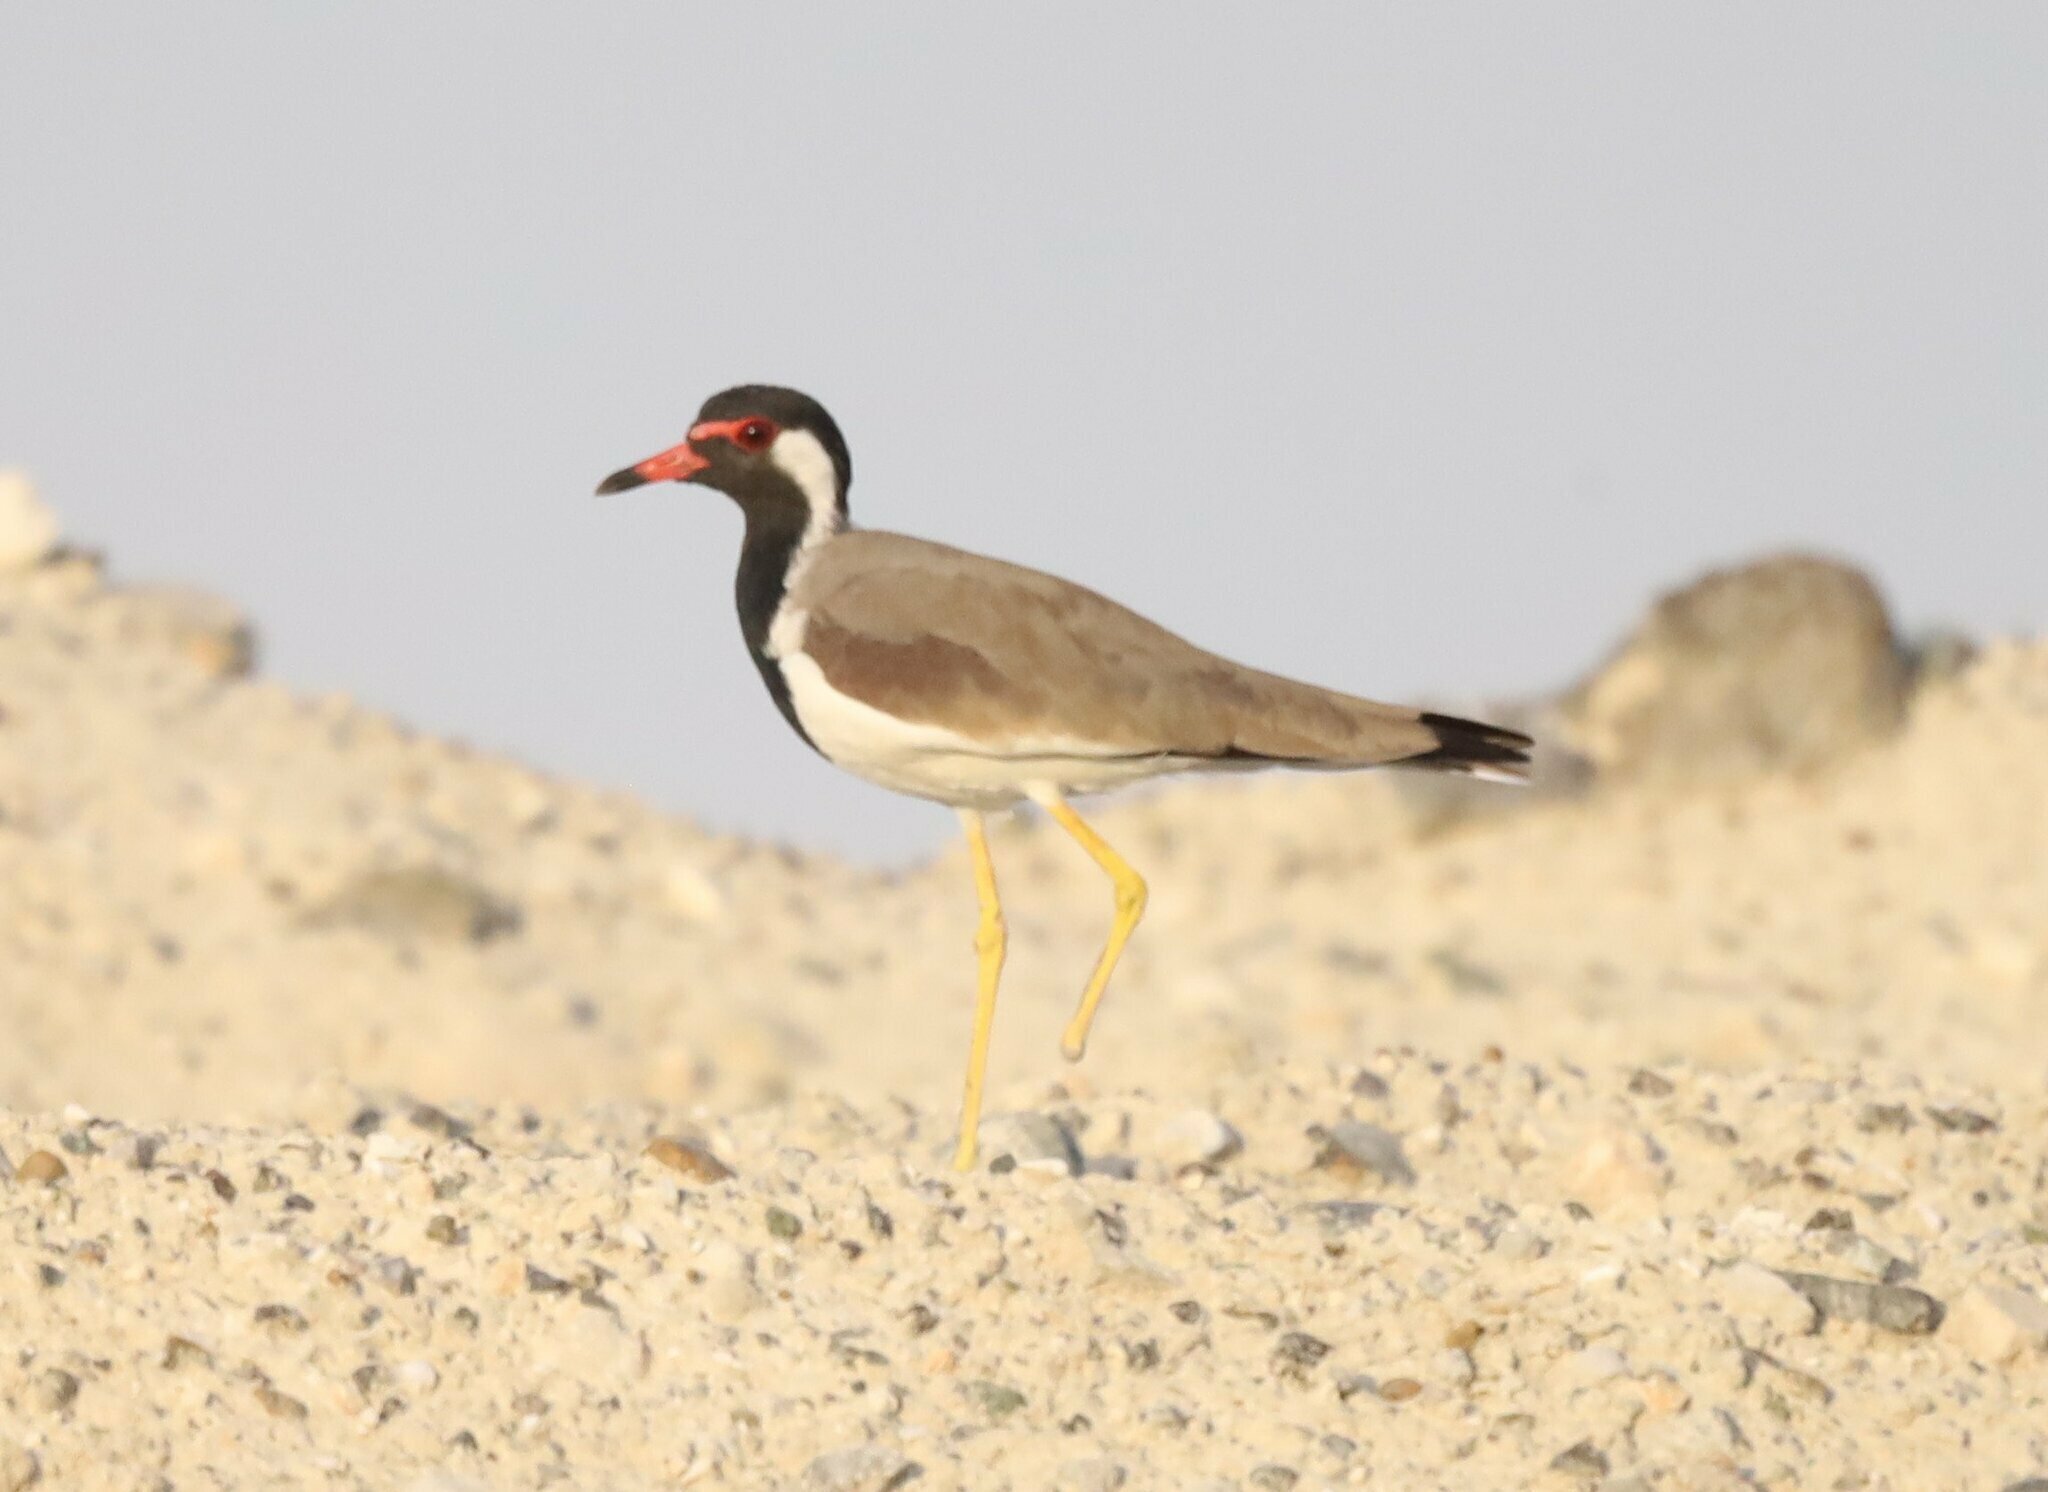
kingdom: Animalia
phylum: Chordata
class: Aves
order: Charadriiformes
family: Charadriidae
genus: Vanellus
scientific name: Vanellus indicus
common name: Red-wattled lapwing
